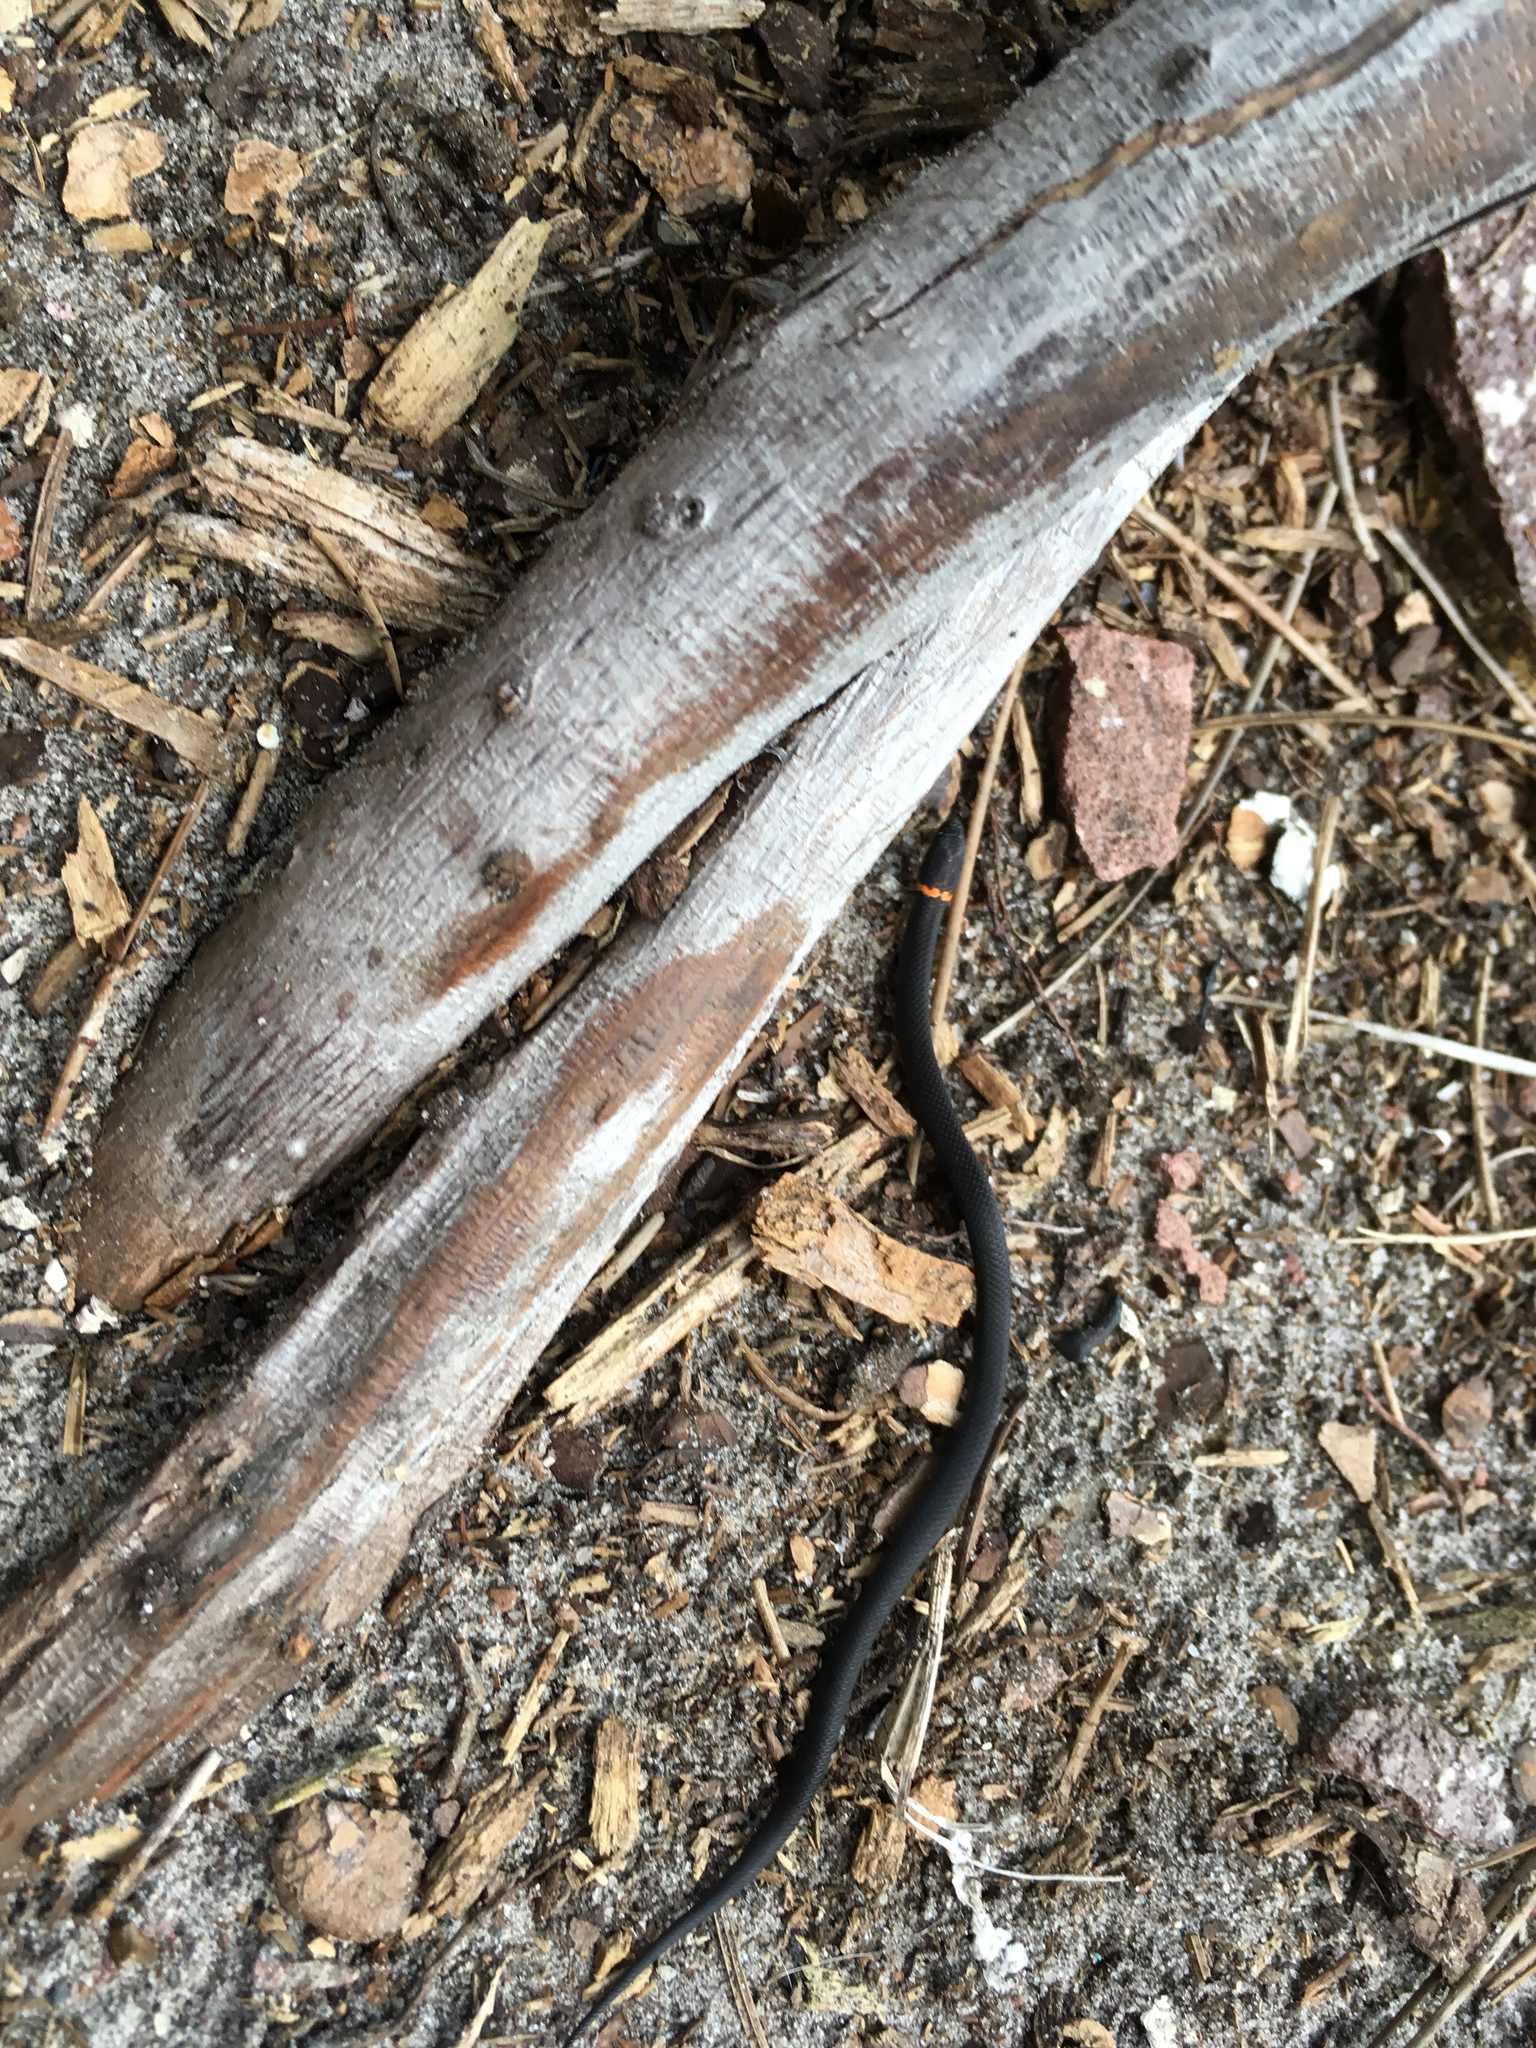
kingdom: Animalia
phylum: Chordata
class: Squamata
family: Colubridae
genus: Diadophis
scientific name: Diadophis punctatus
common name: Ringneck snake
